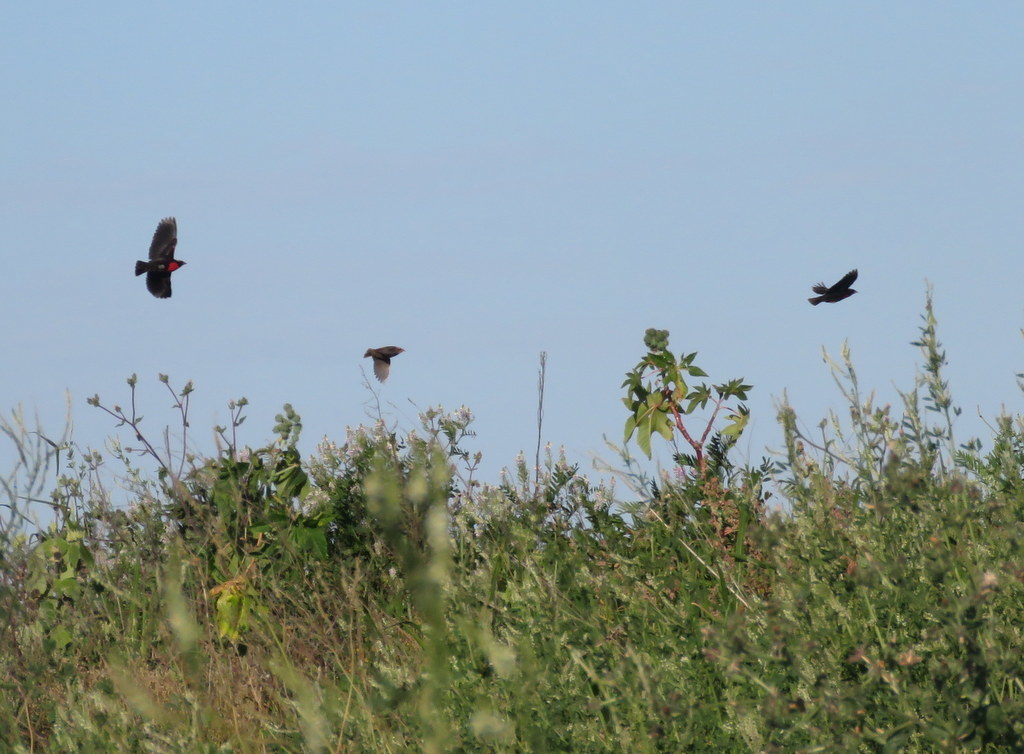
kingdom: Animalia
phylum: Chordata
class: Aves
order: Passeriformes
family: Icteridae
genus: Sturnella
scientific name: Sturnella superciliaris
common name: White-browed blackbird
